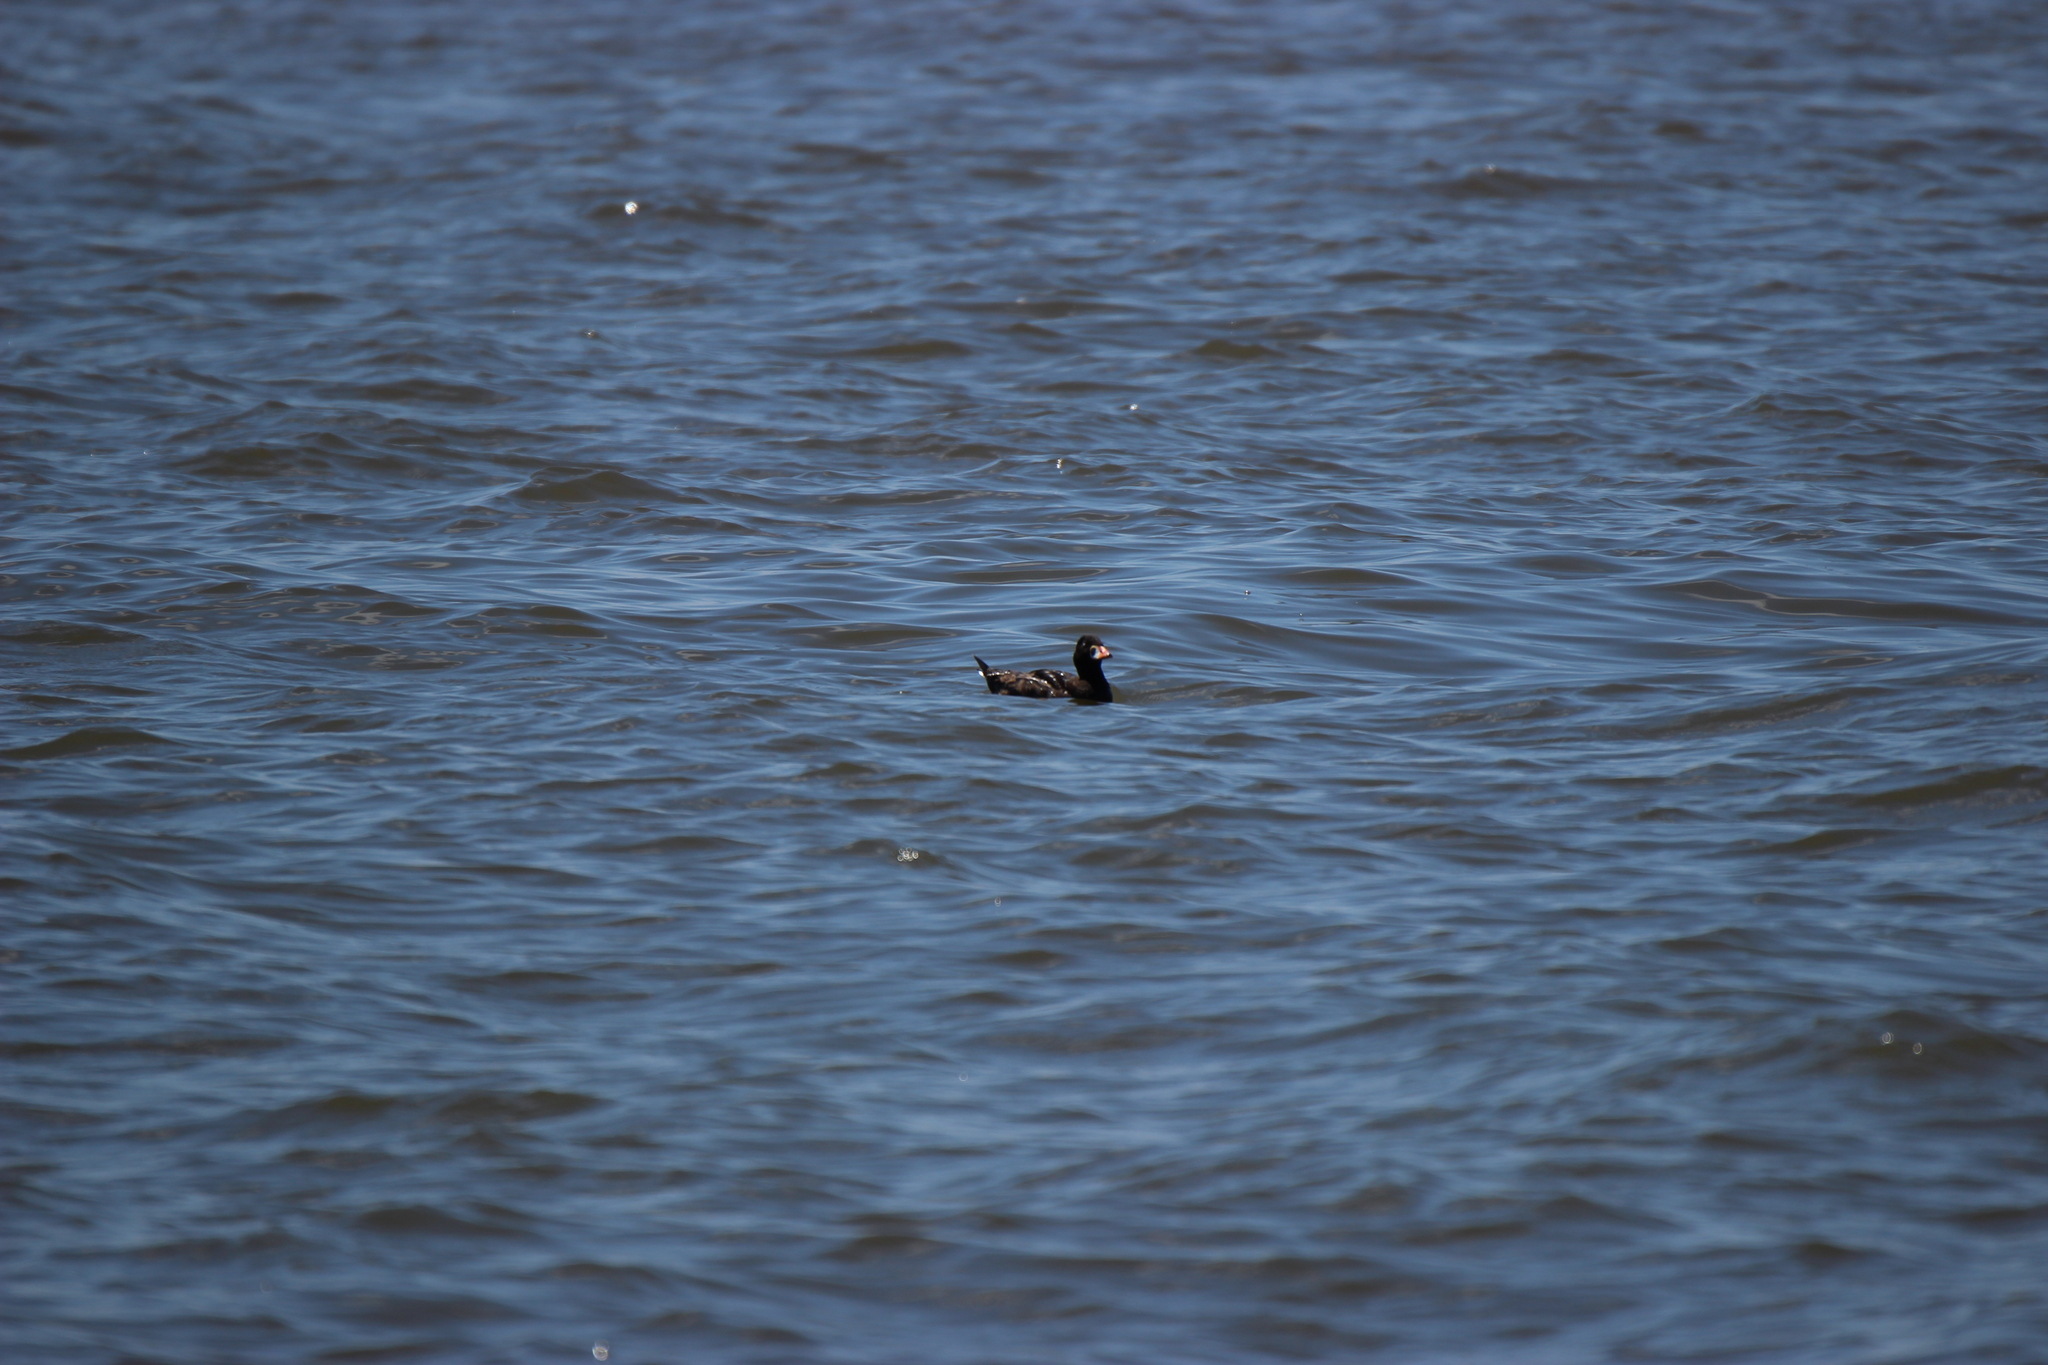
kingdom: Animalia
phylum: Chordata
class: Aves
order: Anseriformes
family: Anatidae
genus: Melanitta
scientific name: Melanitta perspicillata
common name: Surf scoter
